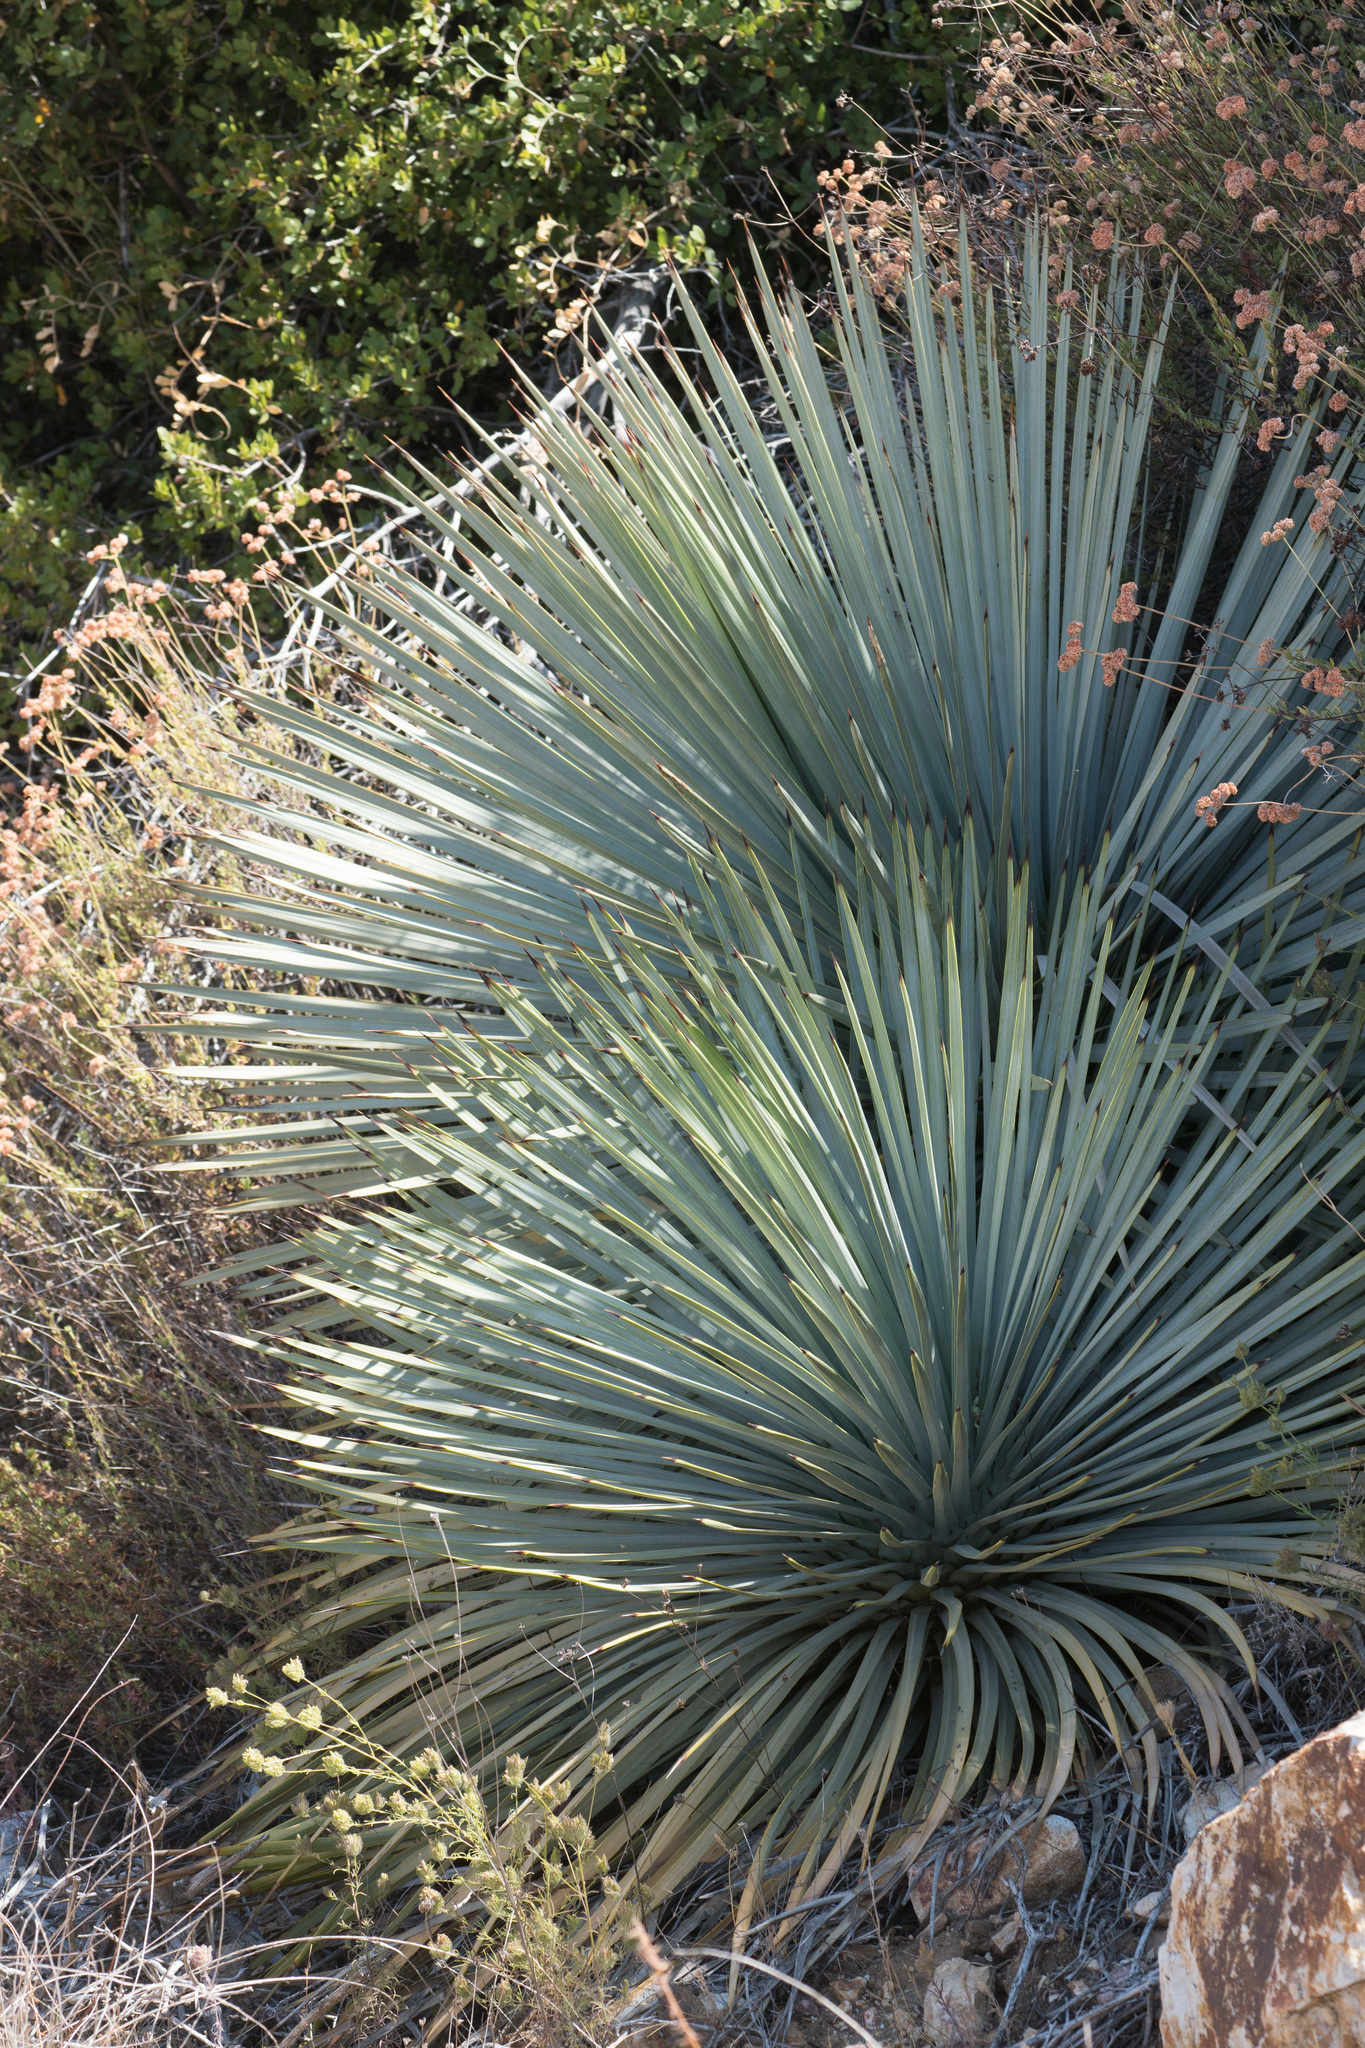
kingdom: Plantae
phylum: Tracheophyta
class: Liliopsida
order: Asparagales
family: Asparagaceae
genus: Hesperoyucca
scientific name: Hesperoyucca whipplei
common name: Our lord's-candle
